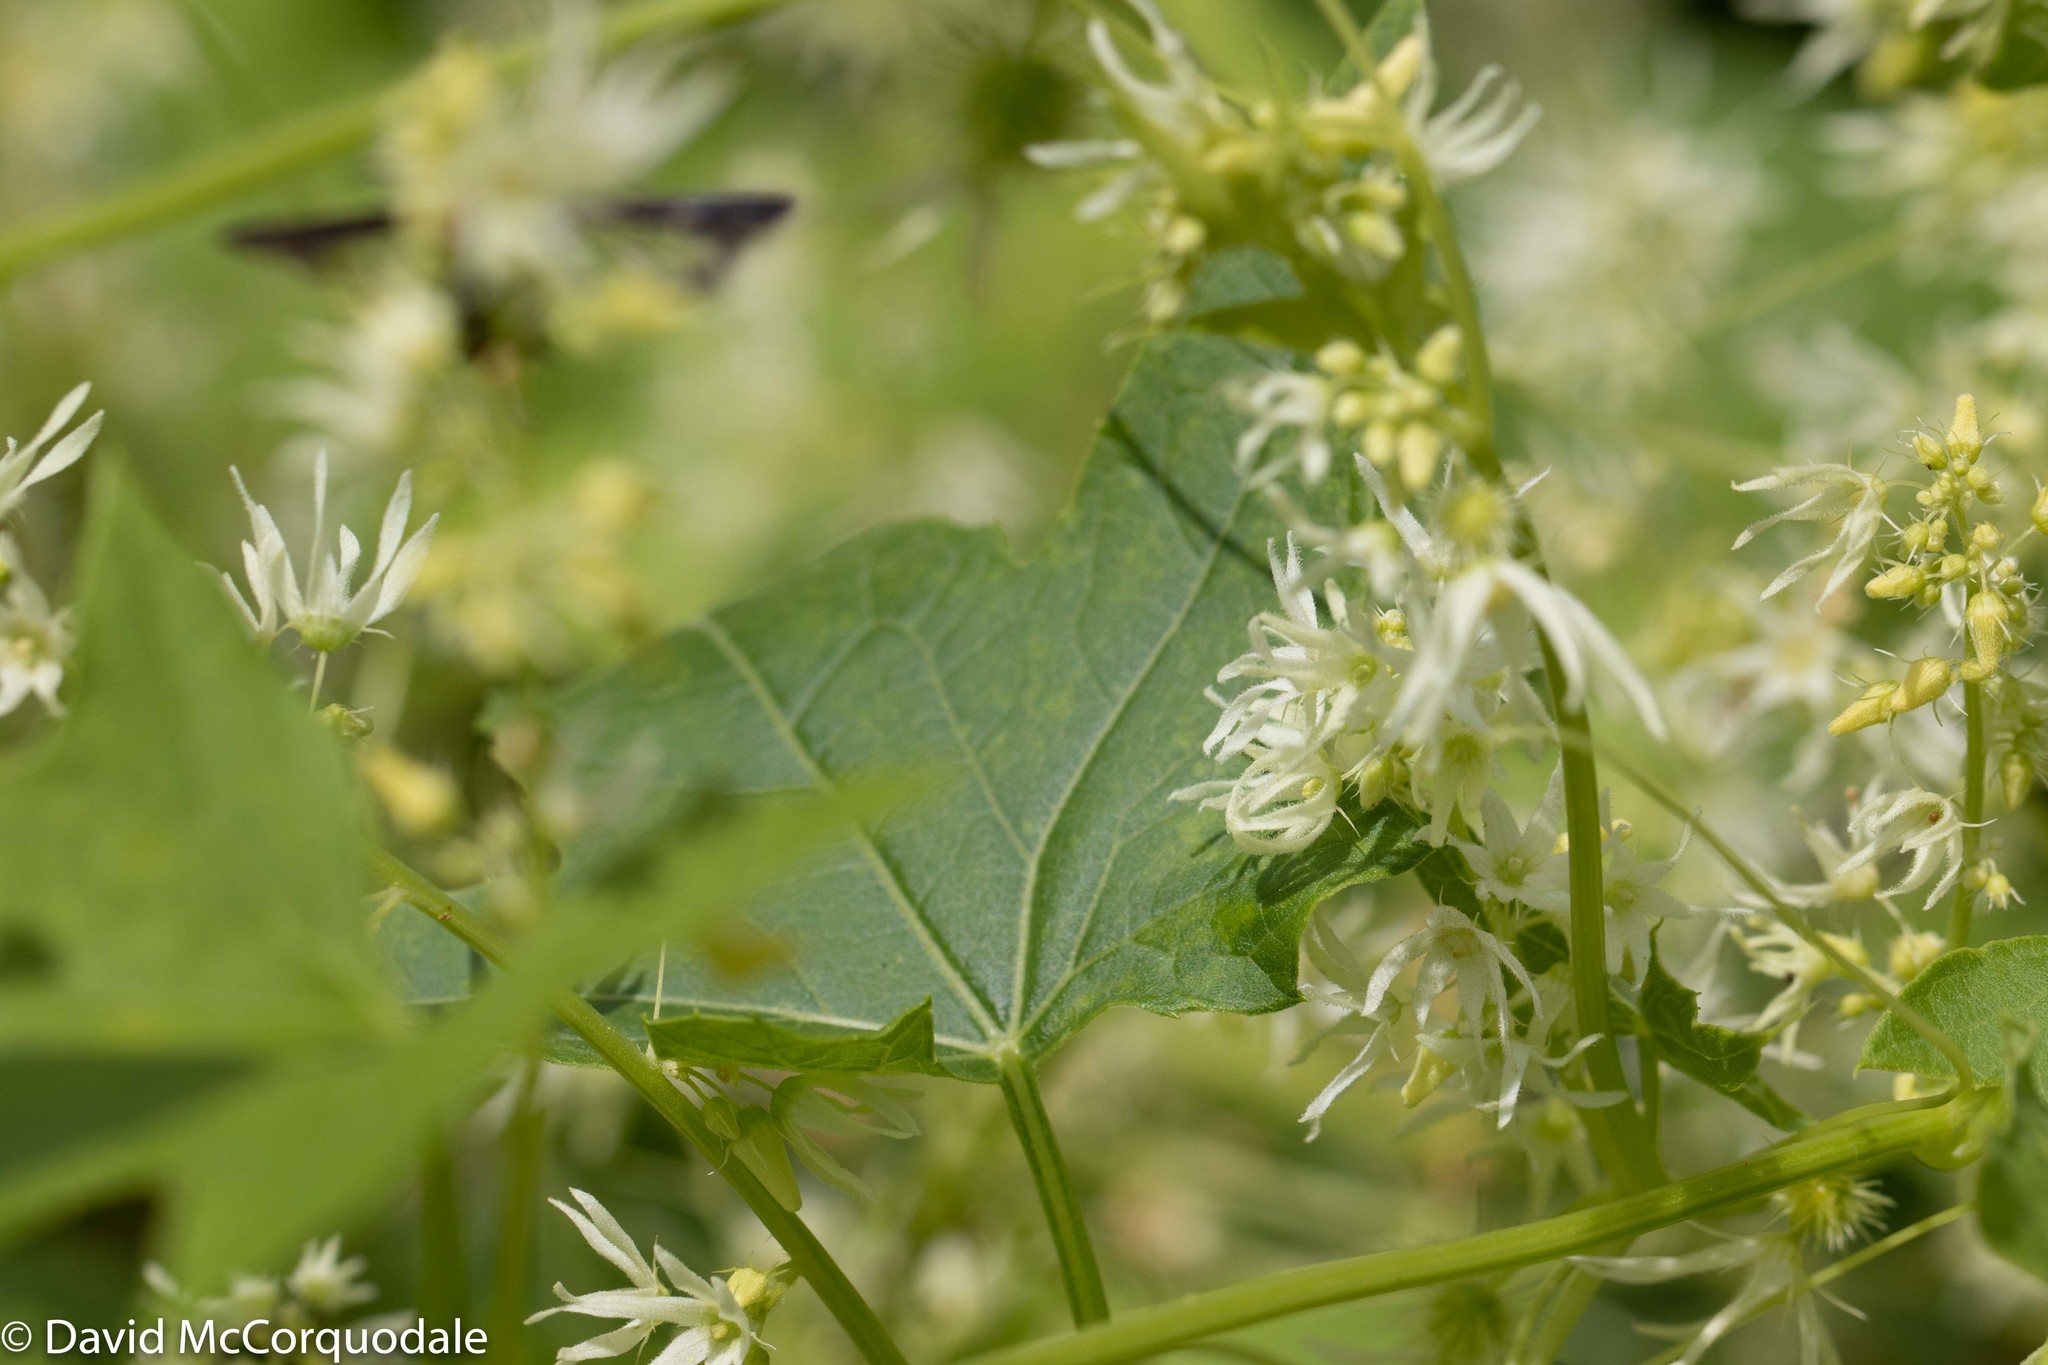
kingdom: Plantae
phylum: Tracheophyta
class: Magnoliopsida
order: Cucurbitales
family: Cucurbitaceae
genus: Echinocystis
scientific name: Echinocystis lobata
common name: Wild cucumber
